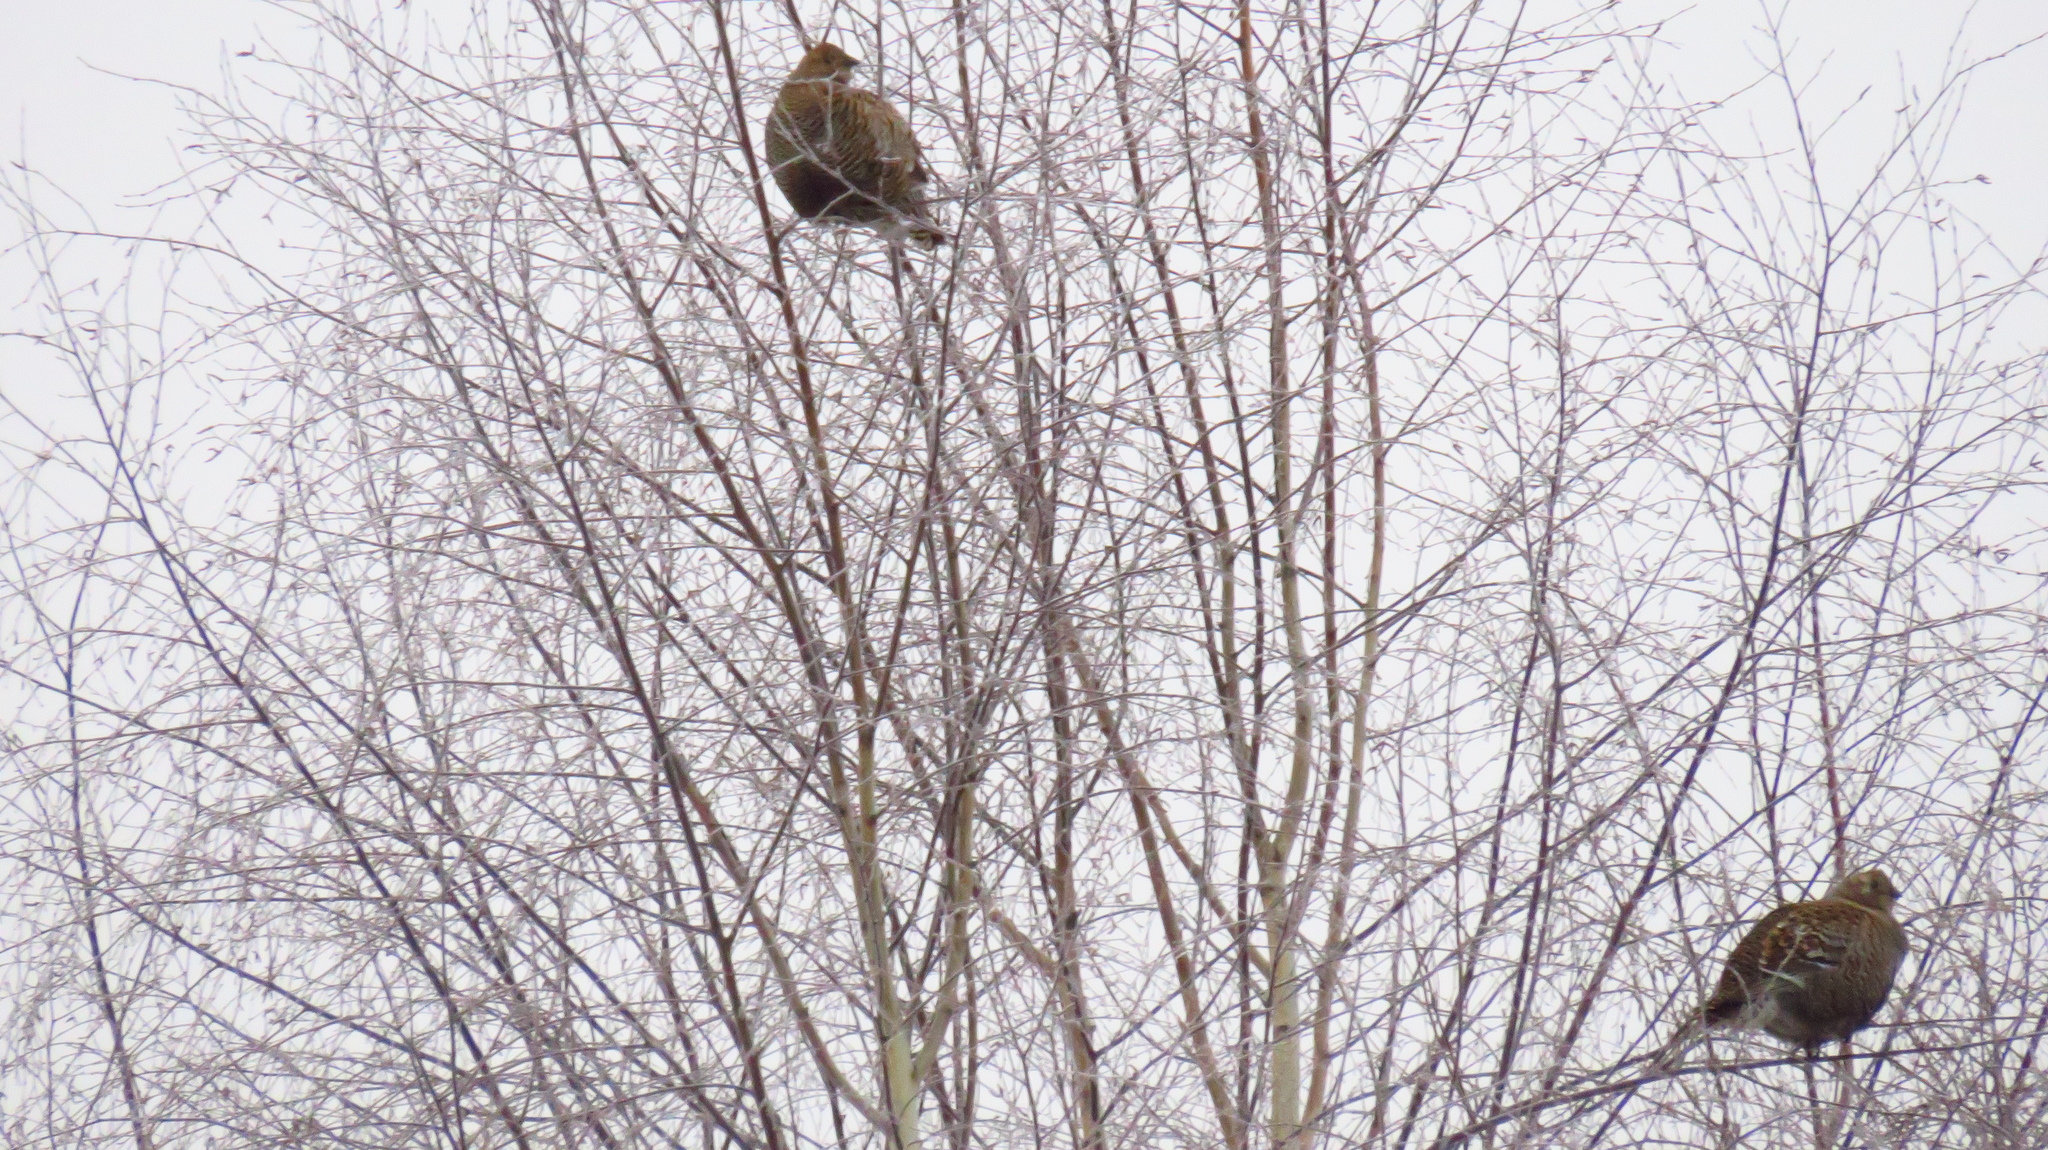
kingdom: Animalia
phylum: Chordata
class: Aves
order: Galliformes
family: Phasianidae
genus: Lyrurus
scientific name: Lyrurus tetrix
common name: Black grouse
